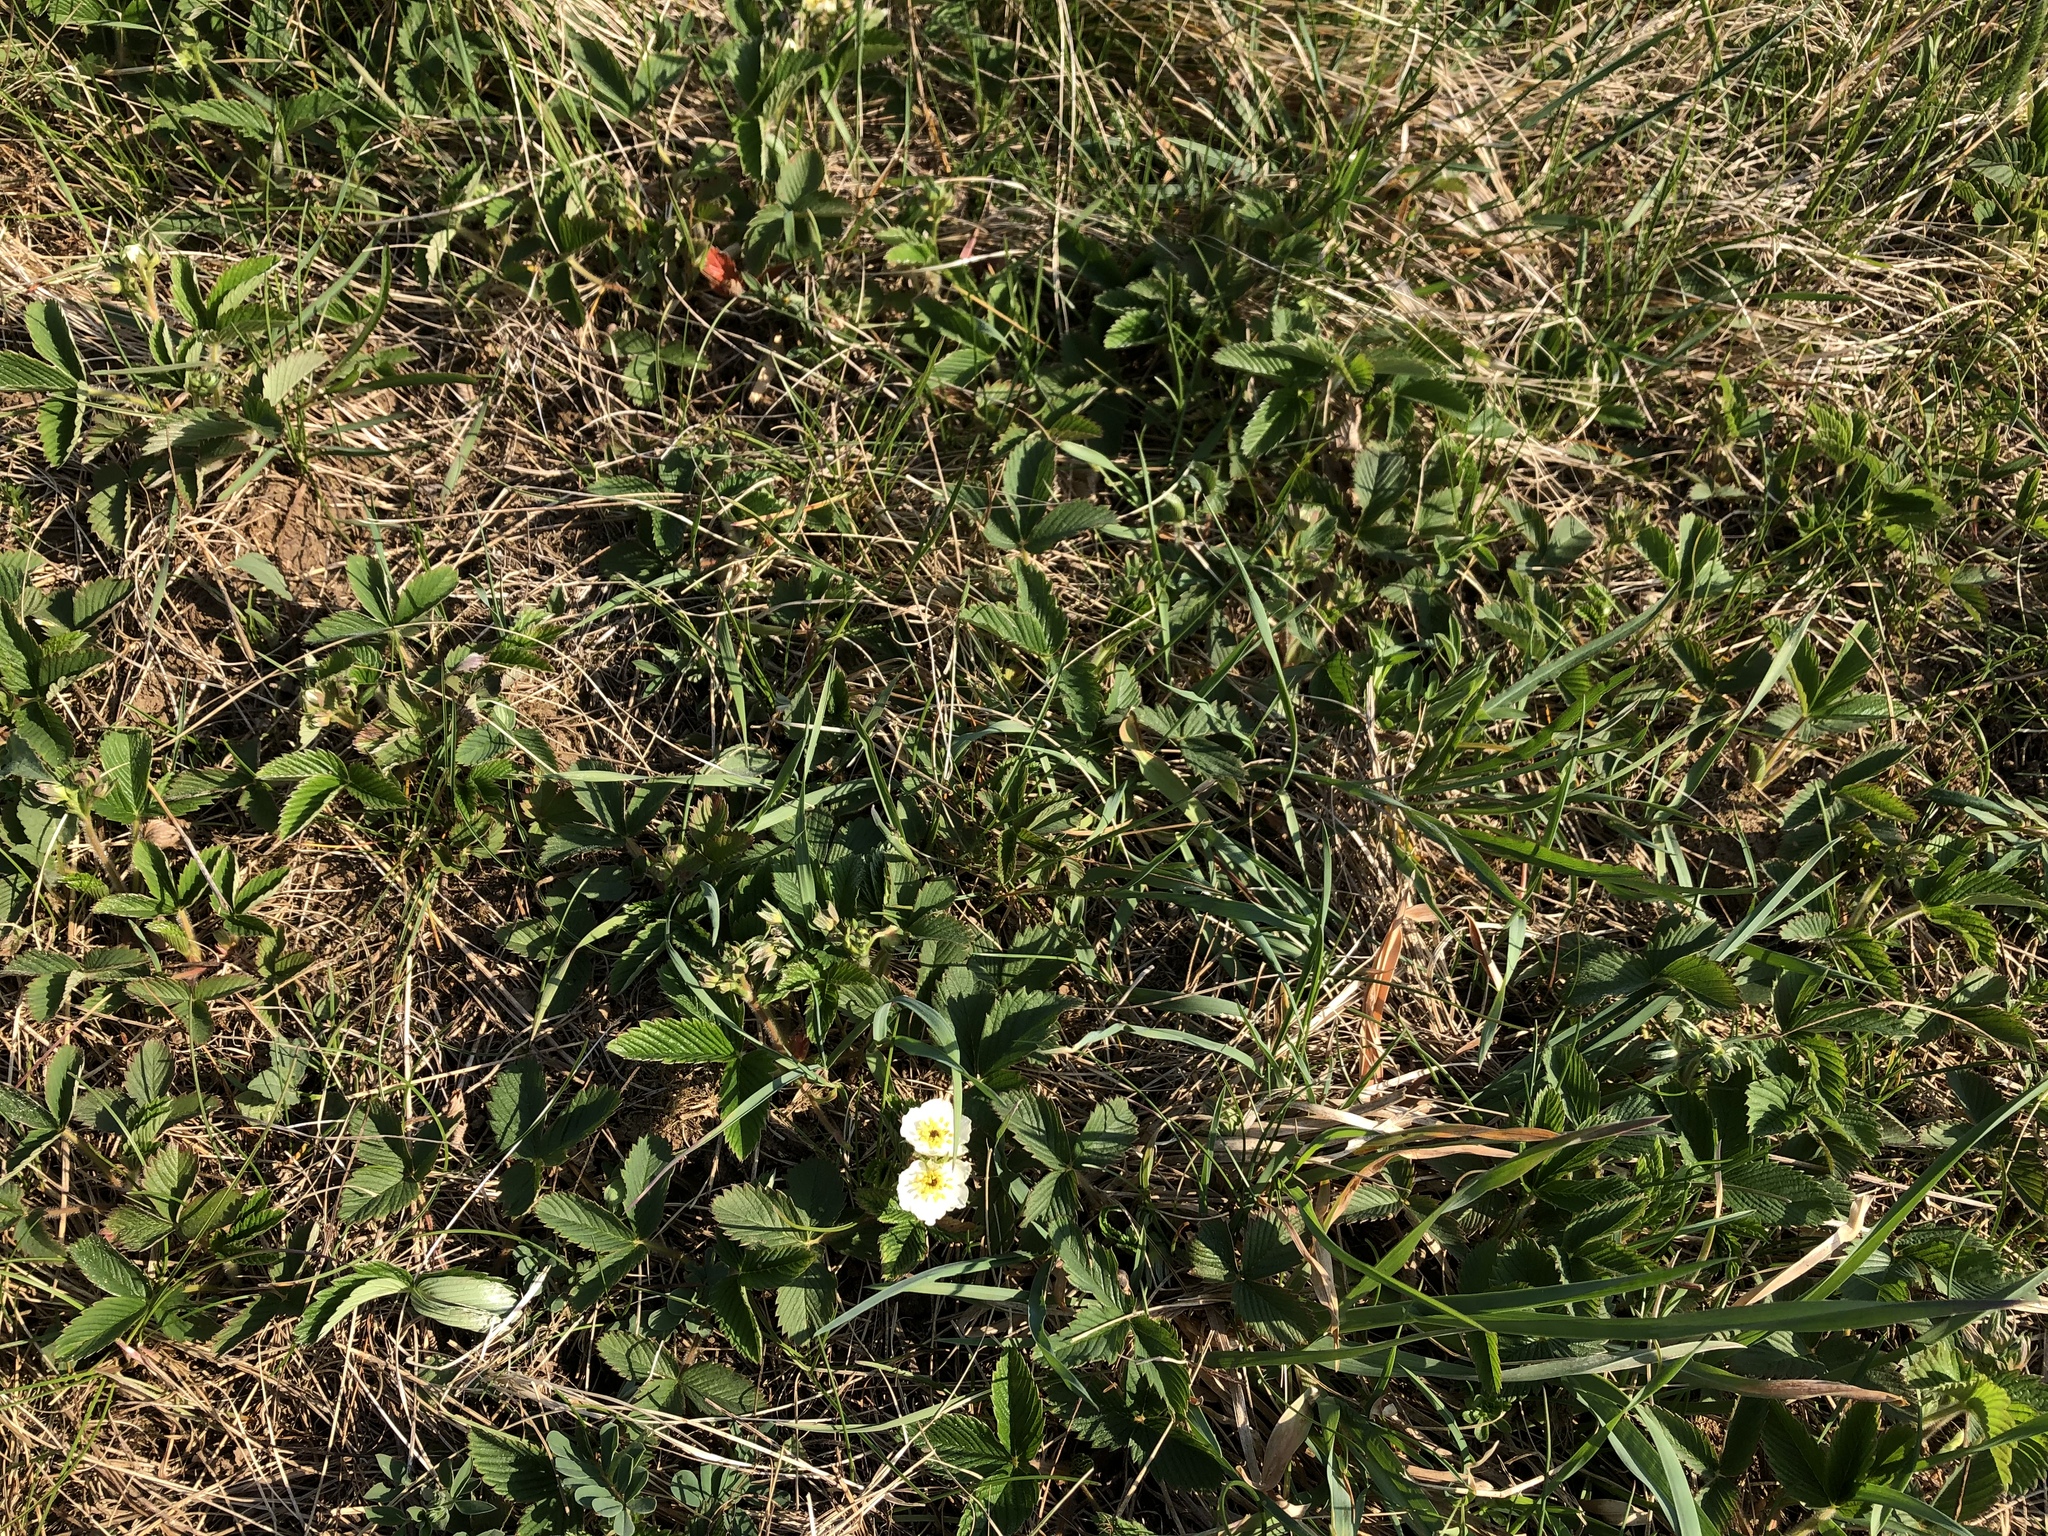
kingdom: Plantae
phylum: Tracheophyta
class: Magnoliopsida
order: Rosales
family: Rosaceae
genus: Fragaria
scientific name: Fragaria viridis
